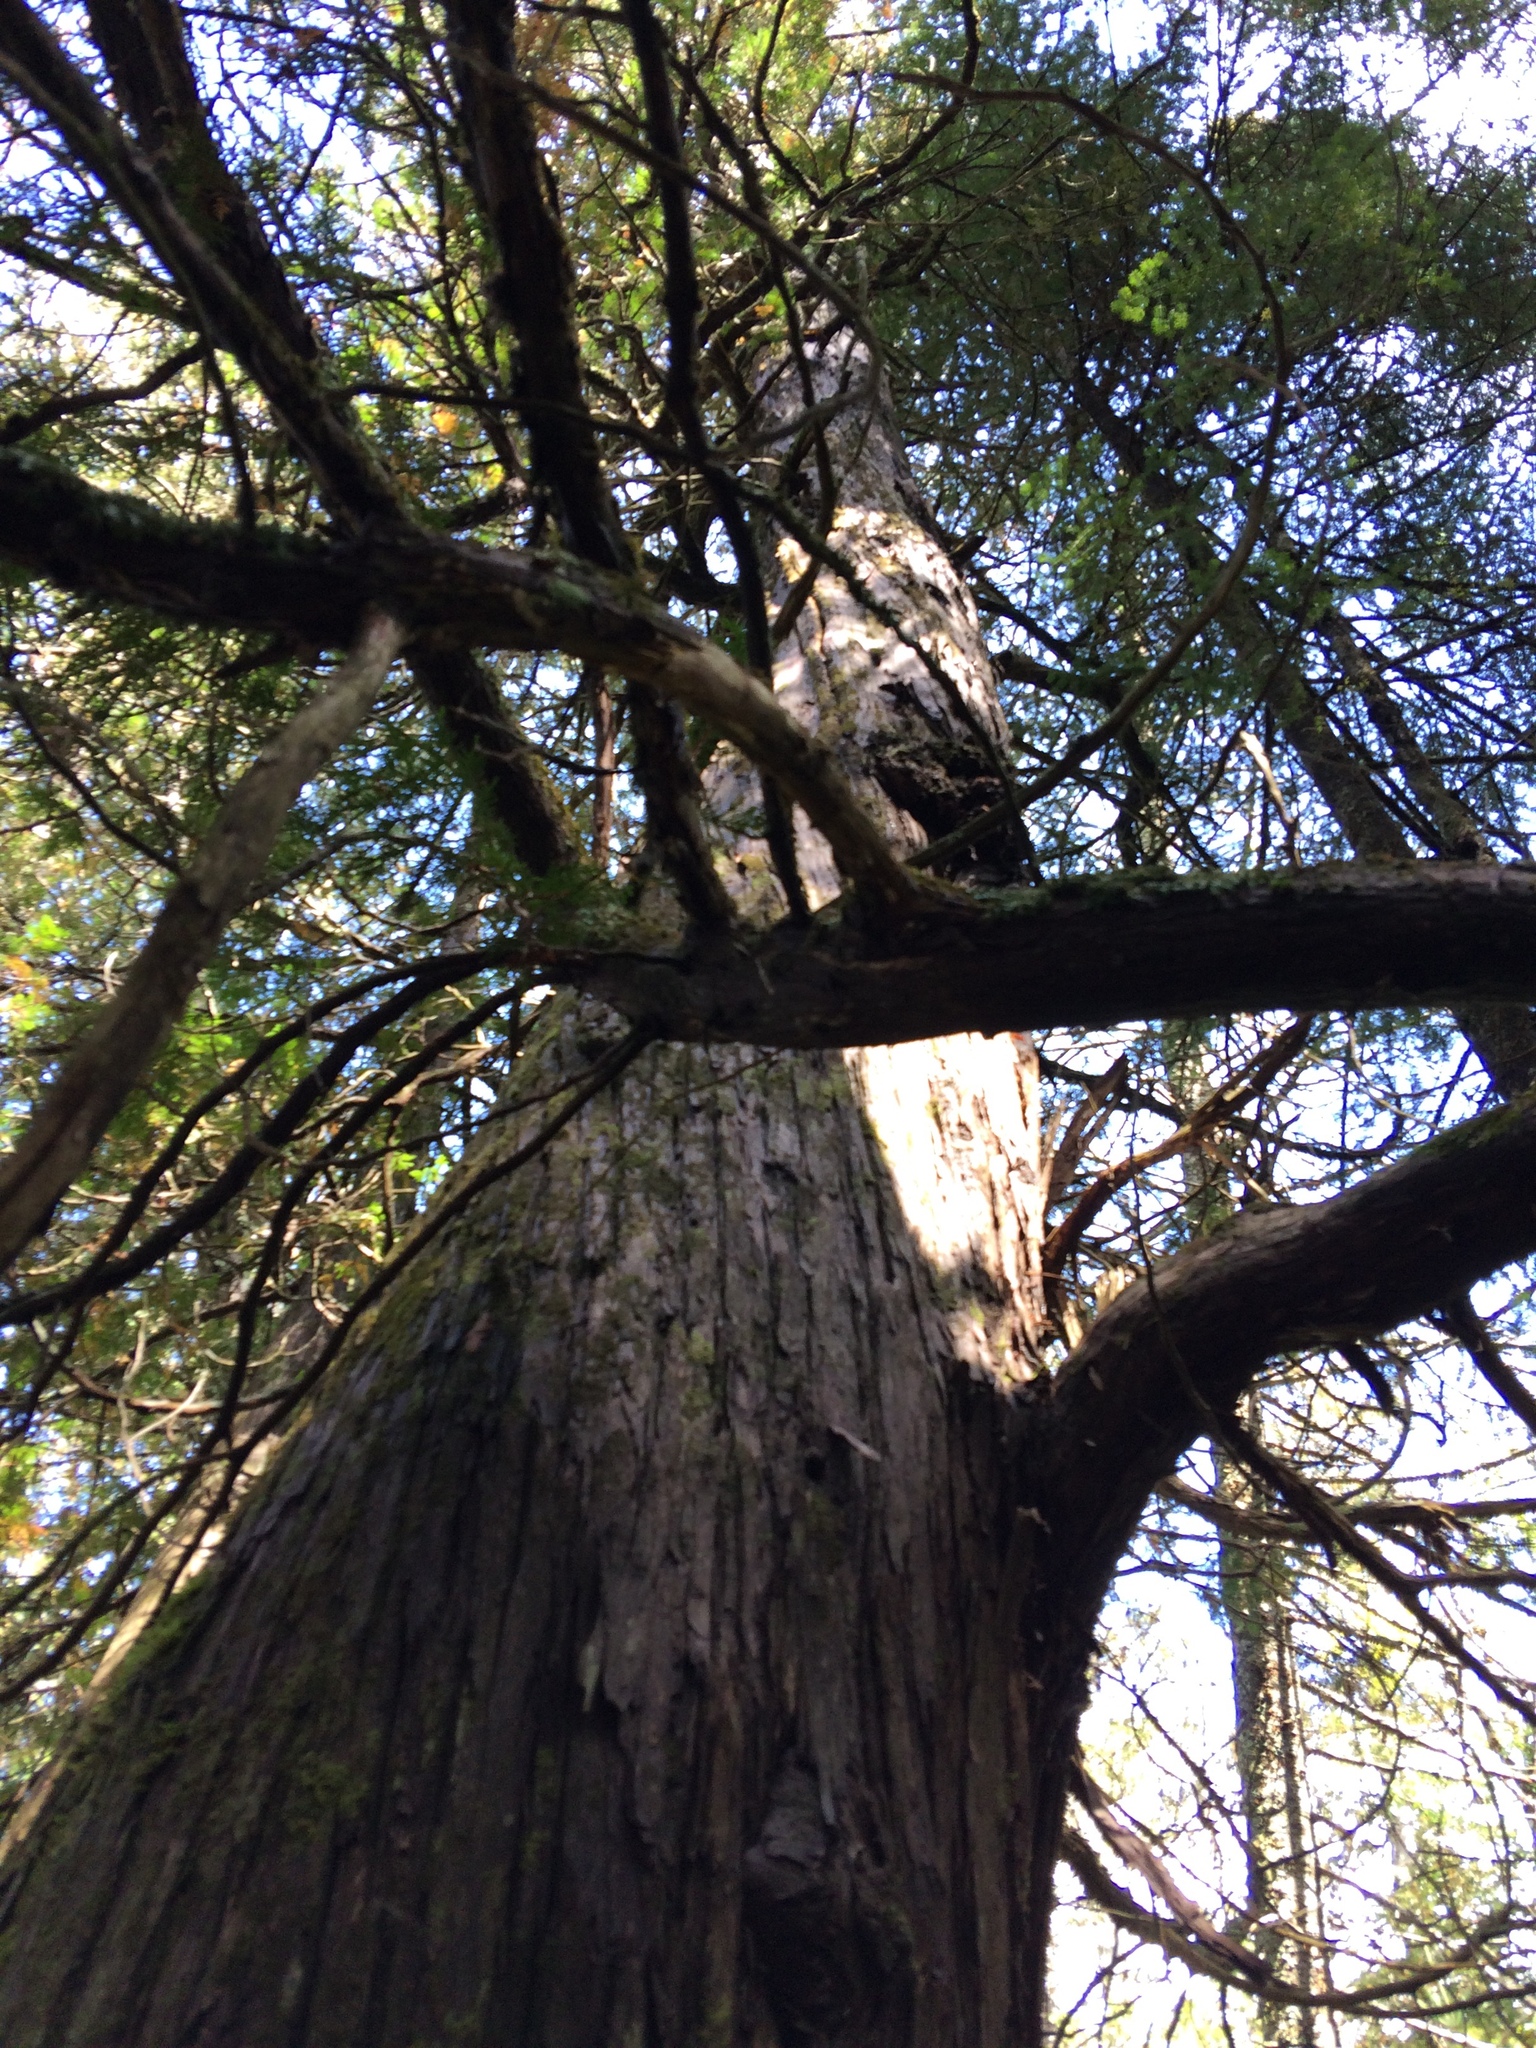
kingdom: Plantae
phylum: Tracheophyta
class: Pinopsida
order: Pinales
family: Cupressaceae
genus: Thuja
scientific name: Thuja occidentalis
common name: Northern white-cedar
